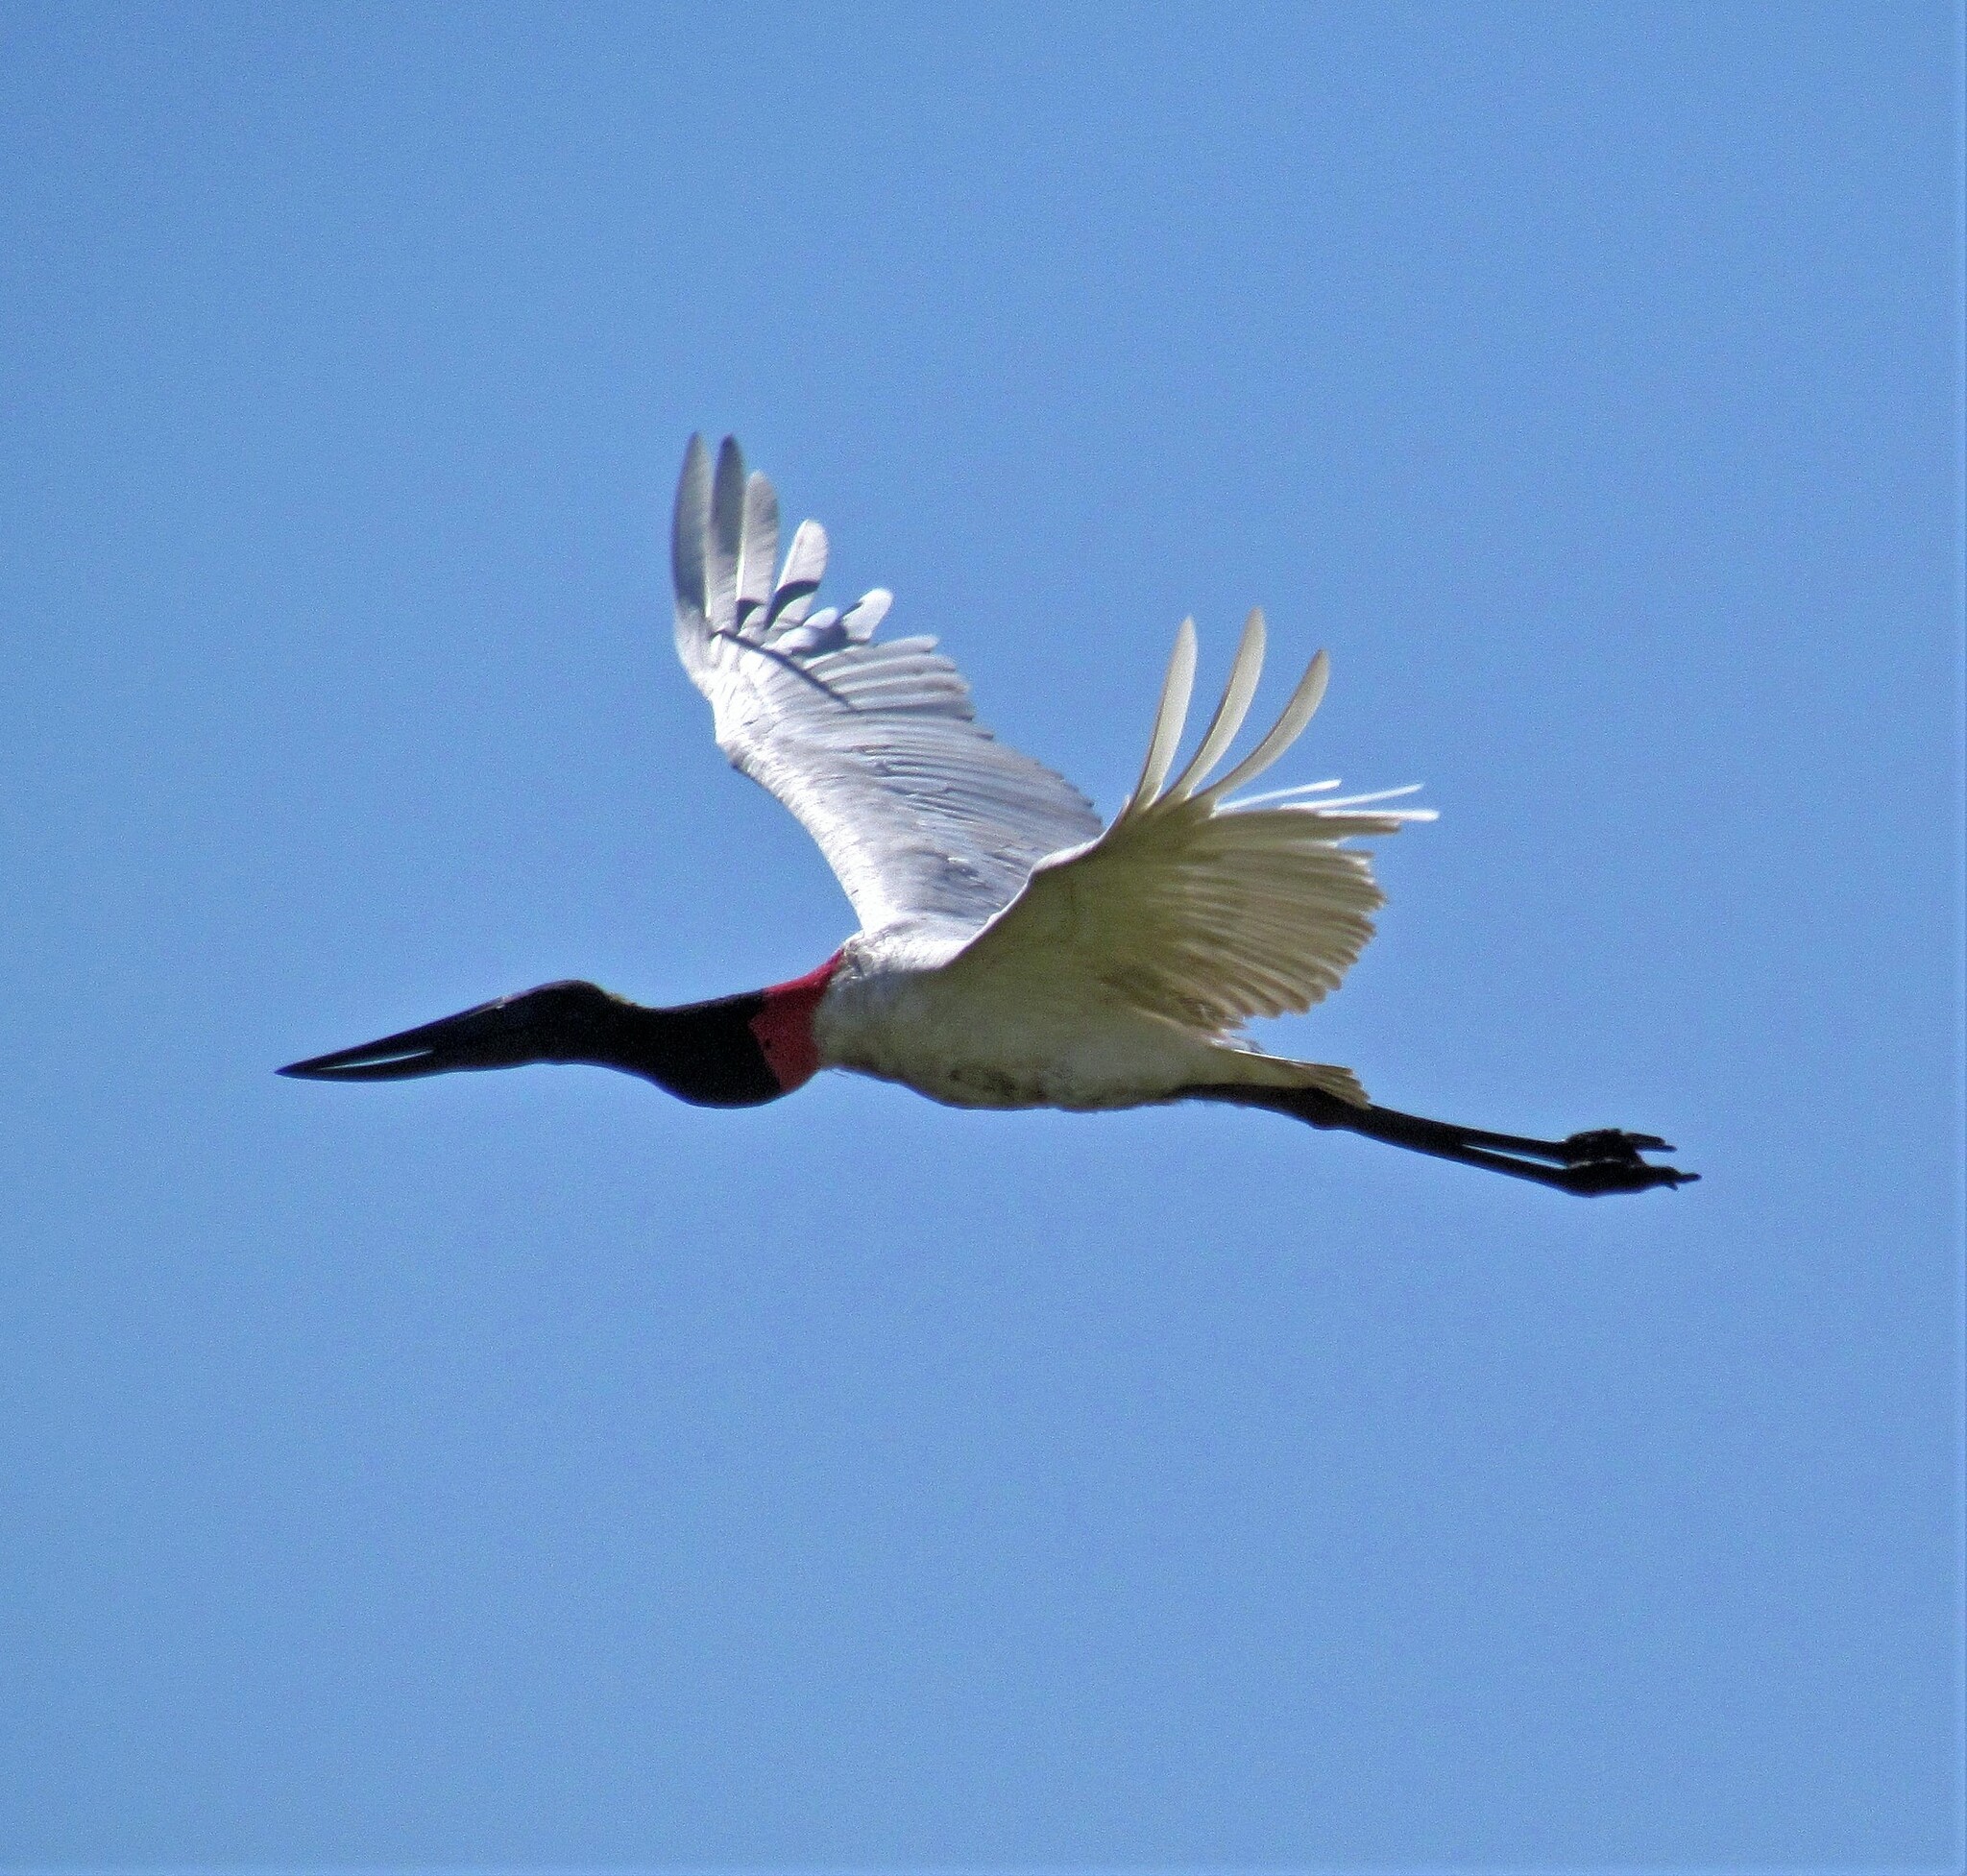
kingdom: Animalia
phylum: Chordata
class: Aves
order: Ciconiiformes
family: Ciconiidae
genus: Jabiru
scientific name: Jabiru mycteria
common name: Jabiru
